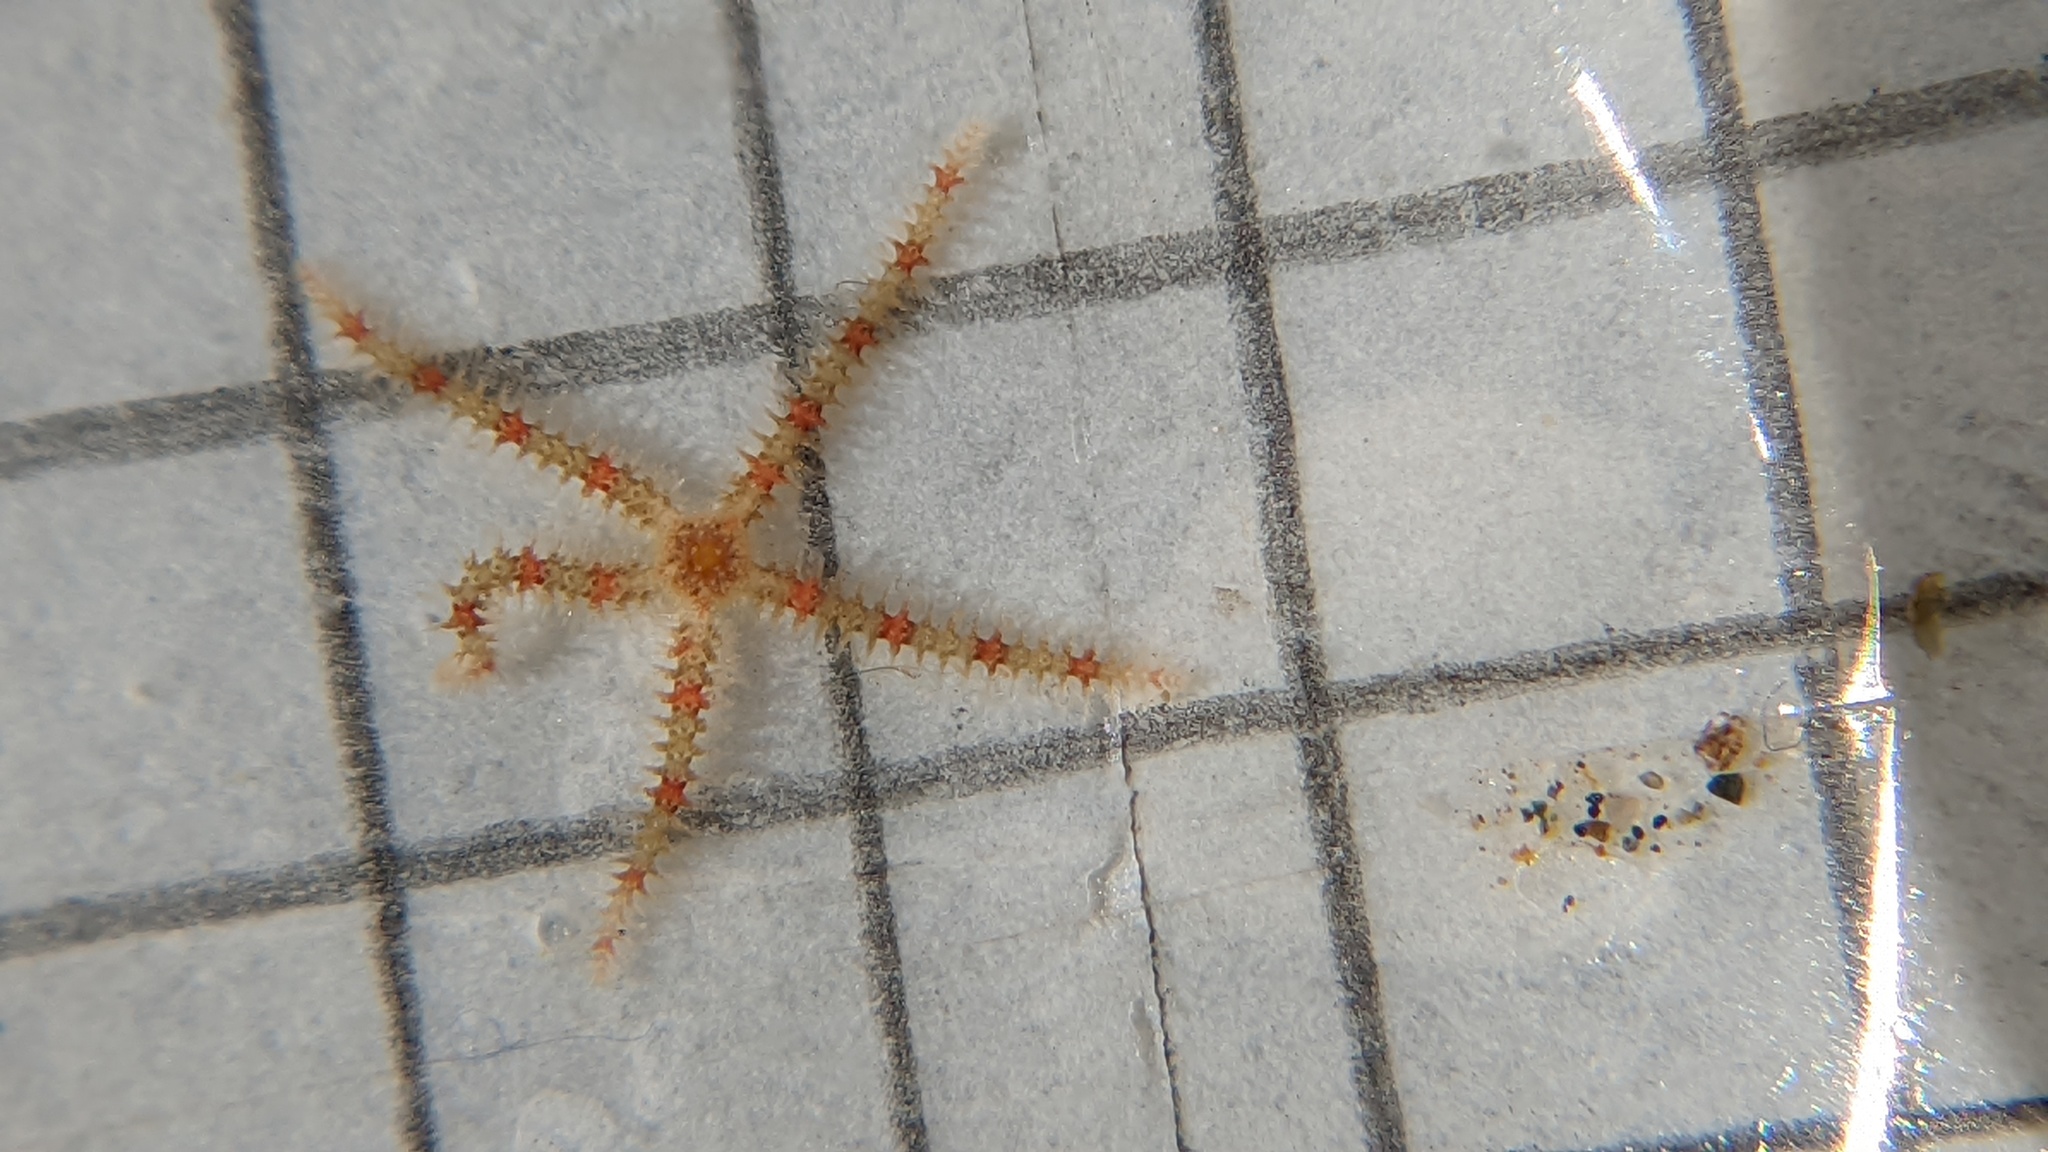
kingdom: Animalia
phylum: Echinodermata
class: Ophiuroidea
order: Amphilepidida
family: Ophiotrichidae
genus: Ophiothrix
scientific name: Ophiothrix spiculata
